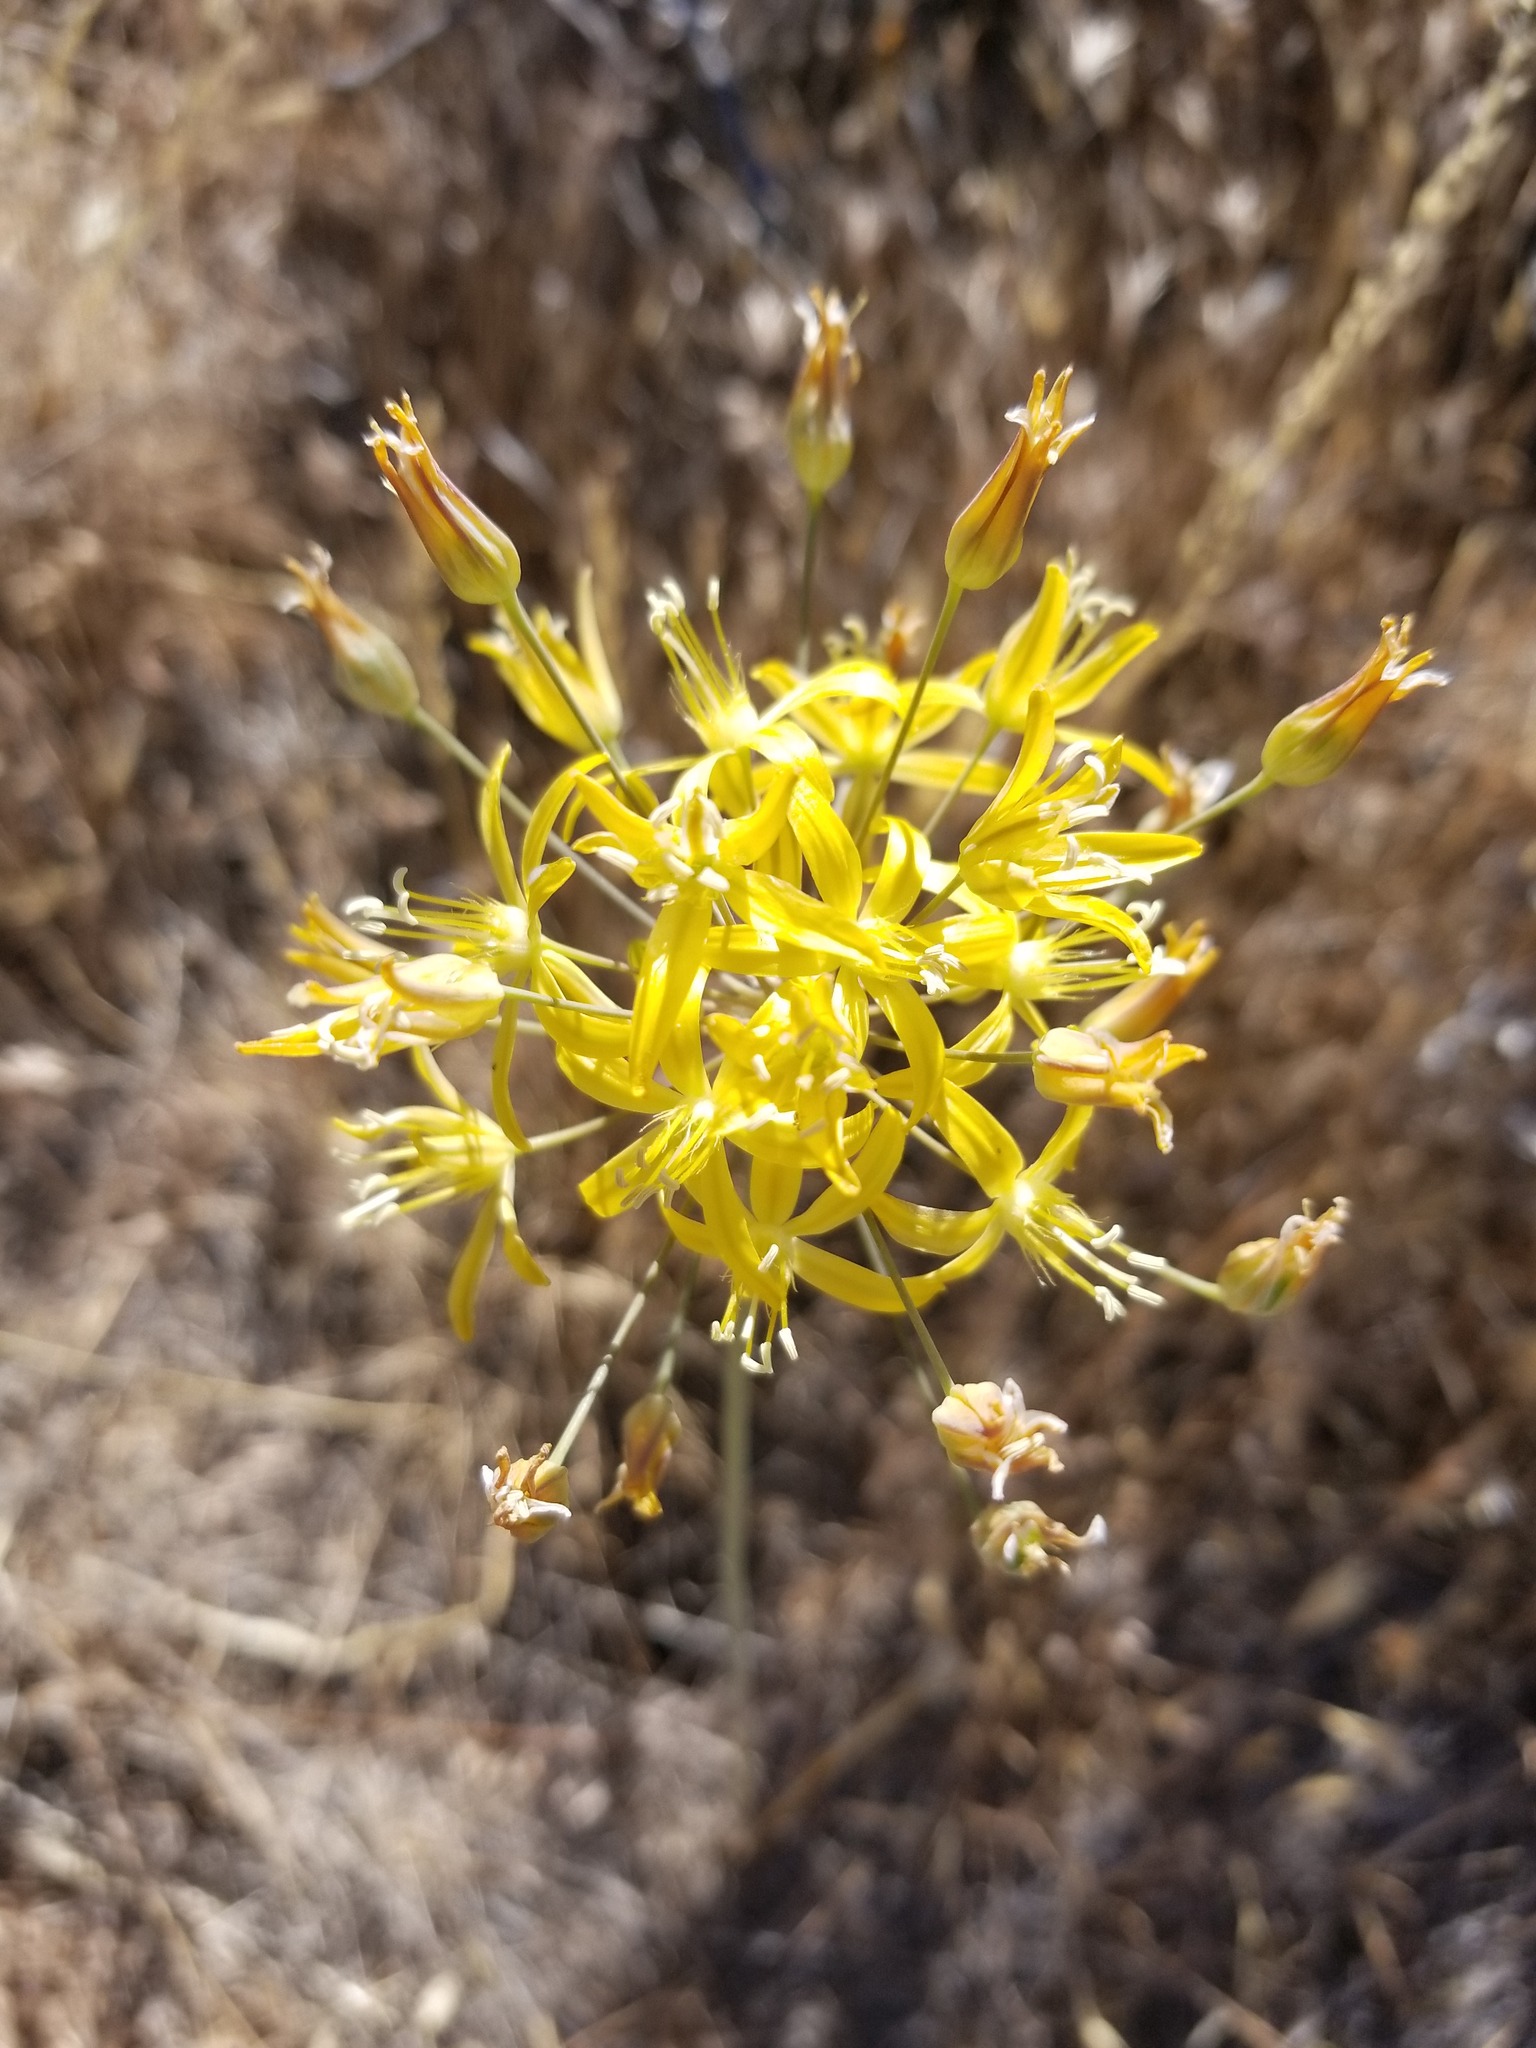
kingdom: Plantae
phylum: Tracheophyta
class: Liliopsida
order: Asparagales
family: Asparagaceae
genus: Bloomeria
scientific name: Bloomeria crocea
